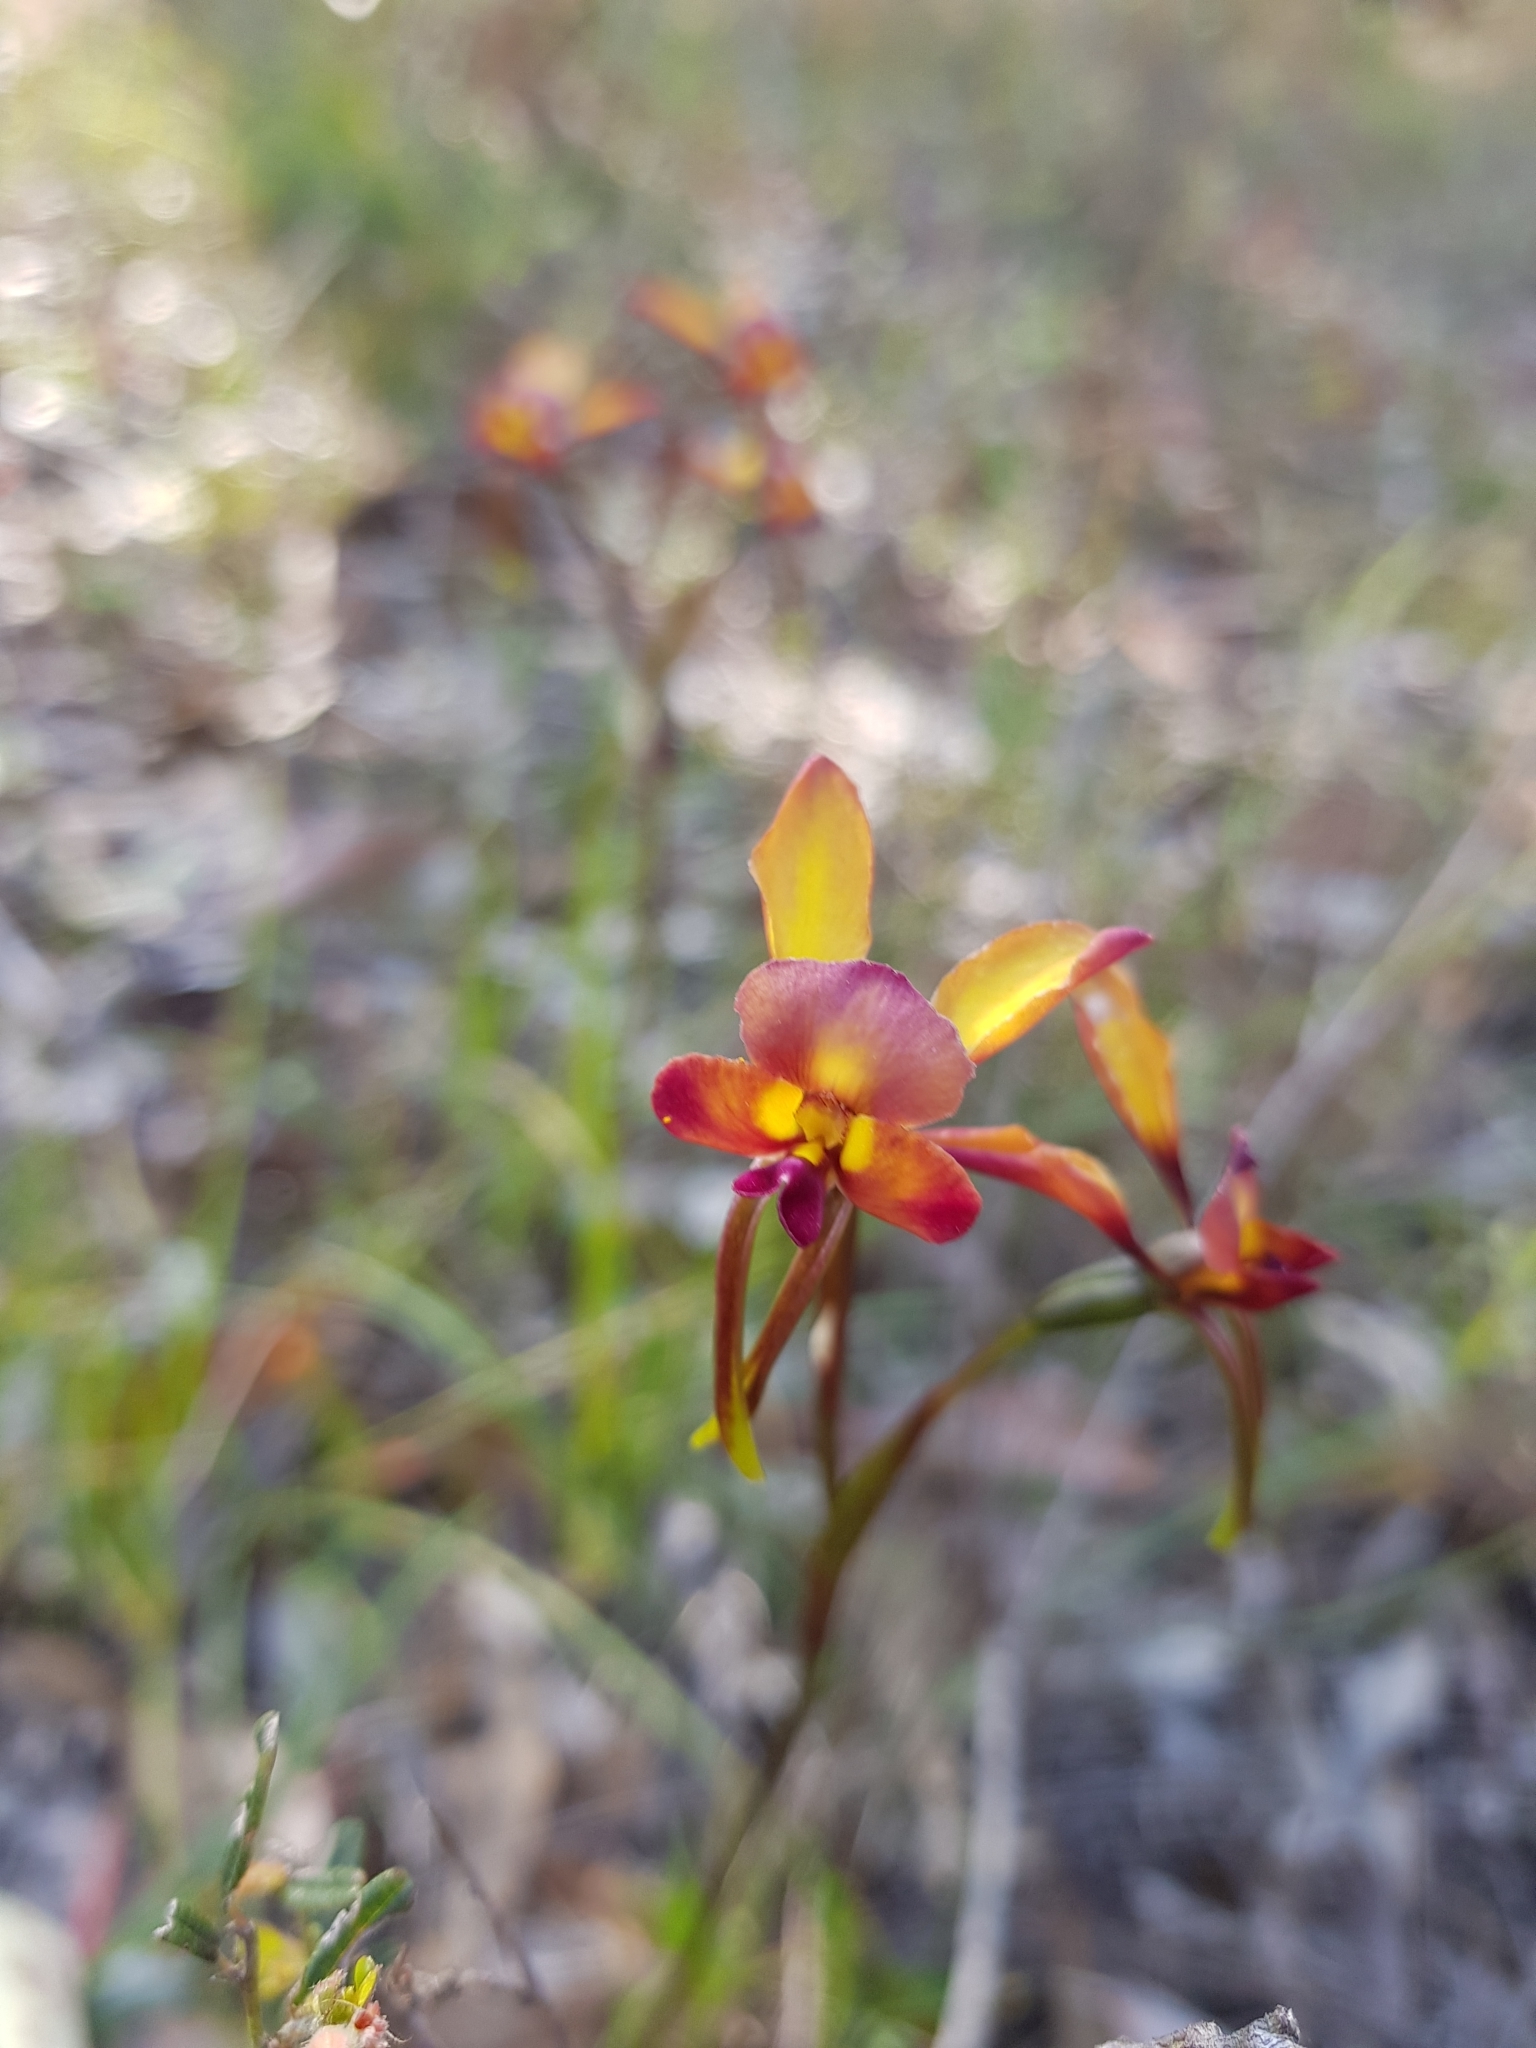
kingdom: Plantae
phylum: Tracheophyta
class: Liliopsida
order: Asparagales
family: Orchidaceae
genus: Diuris
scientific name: Diuris longifolia
